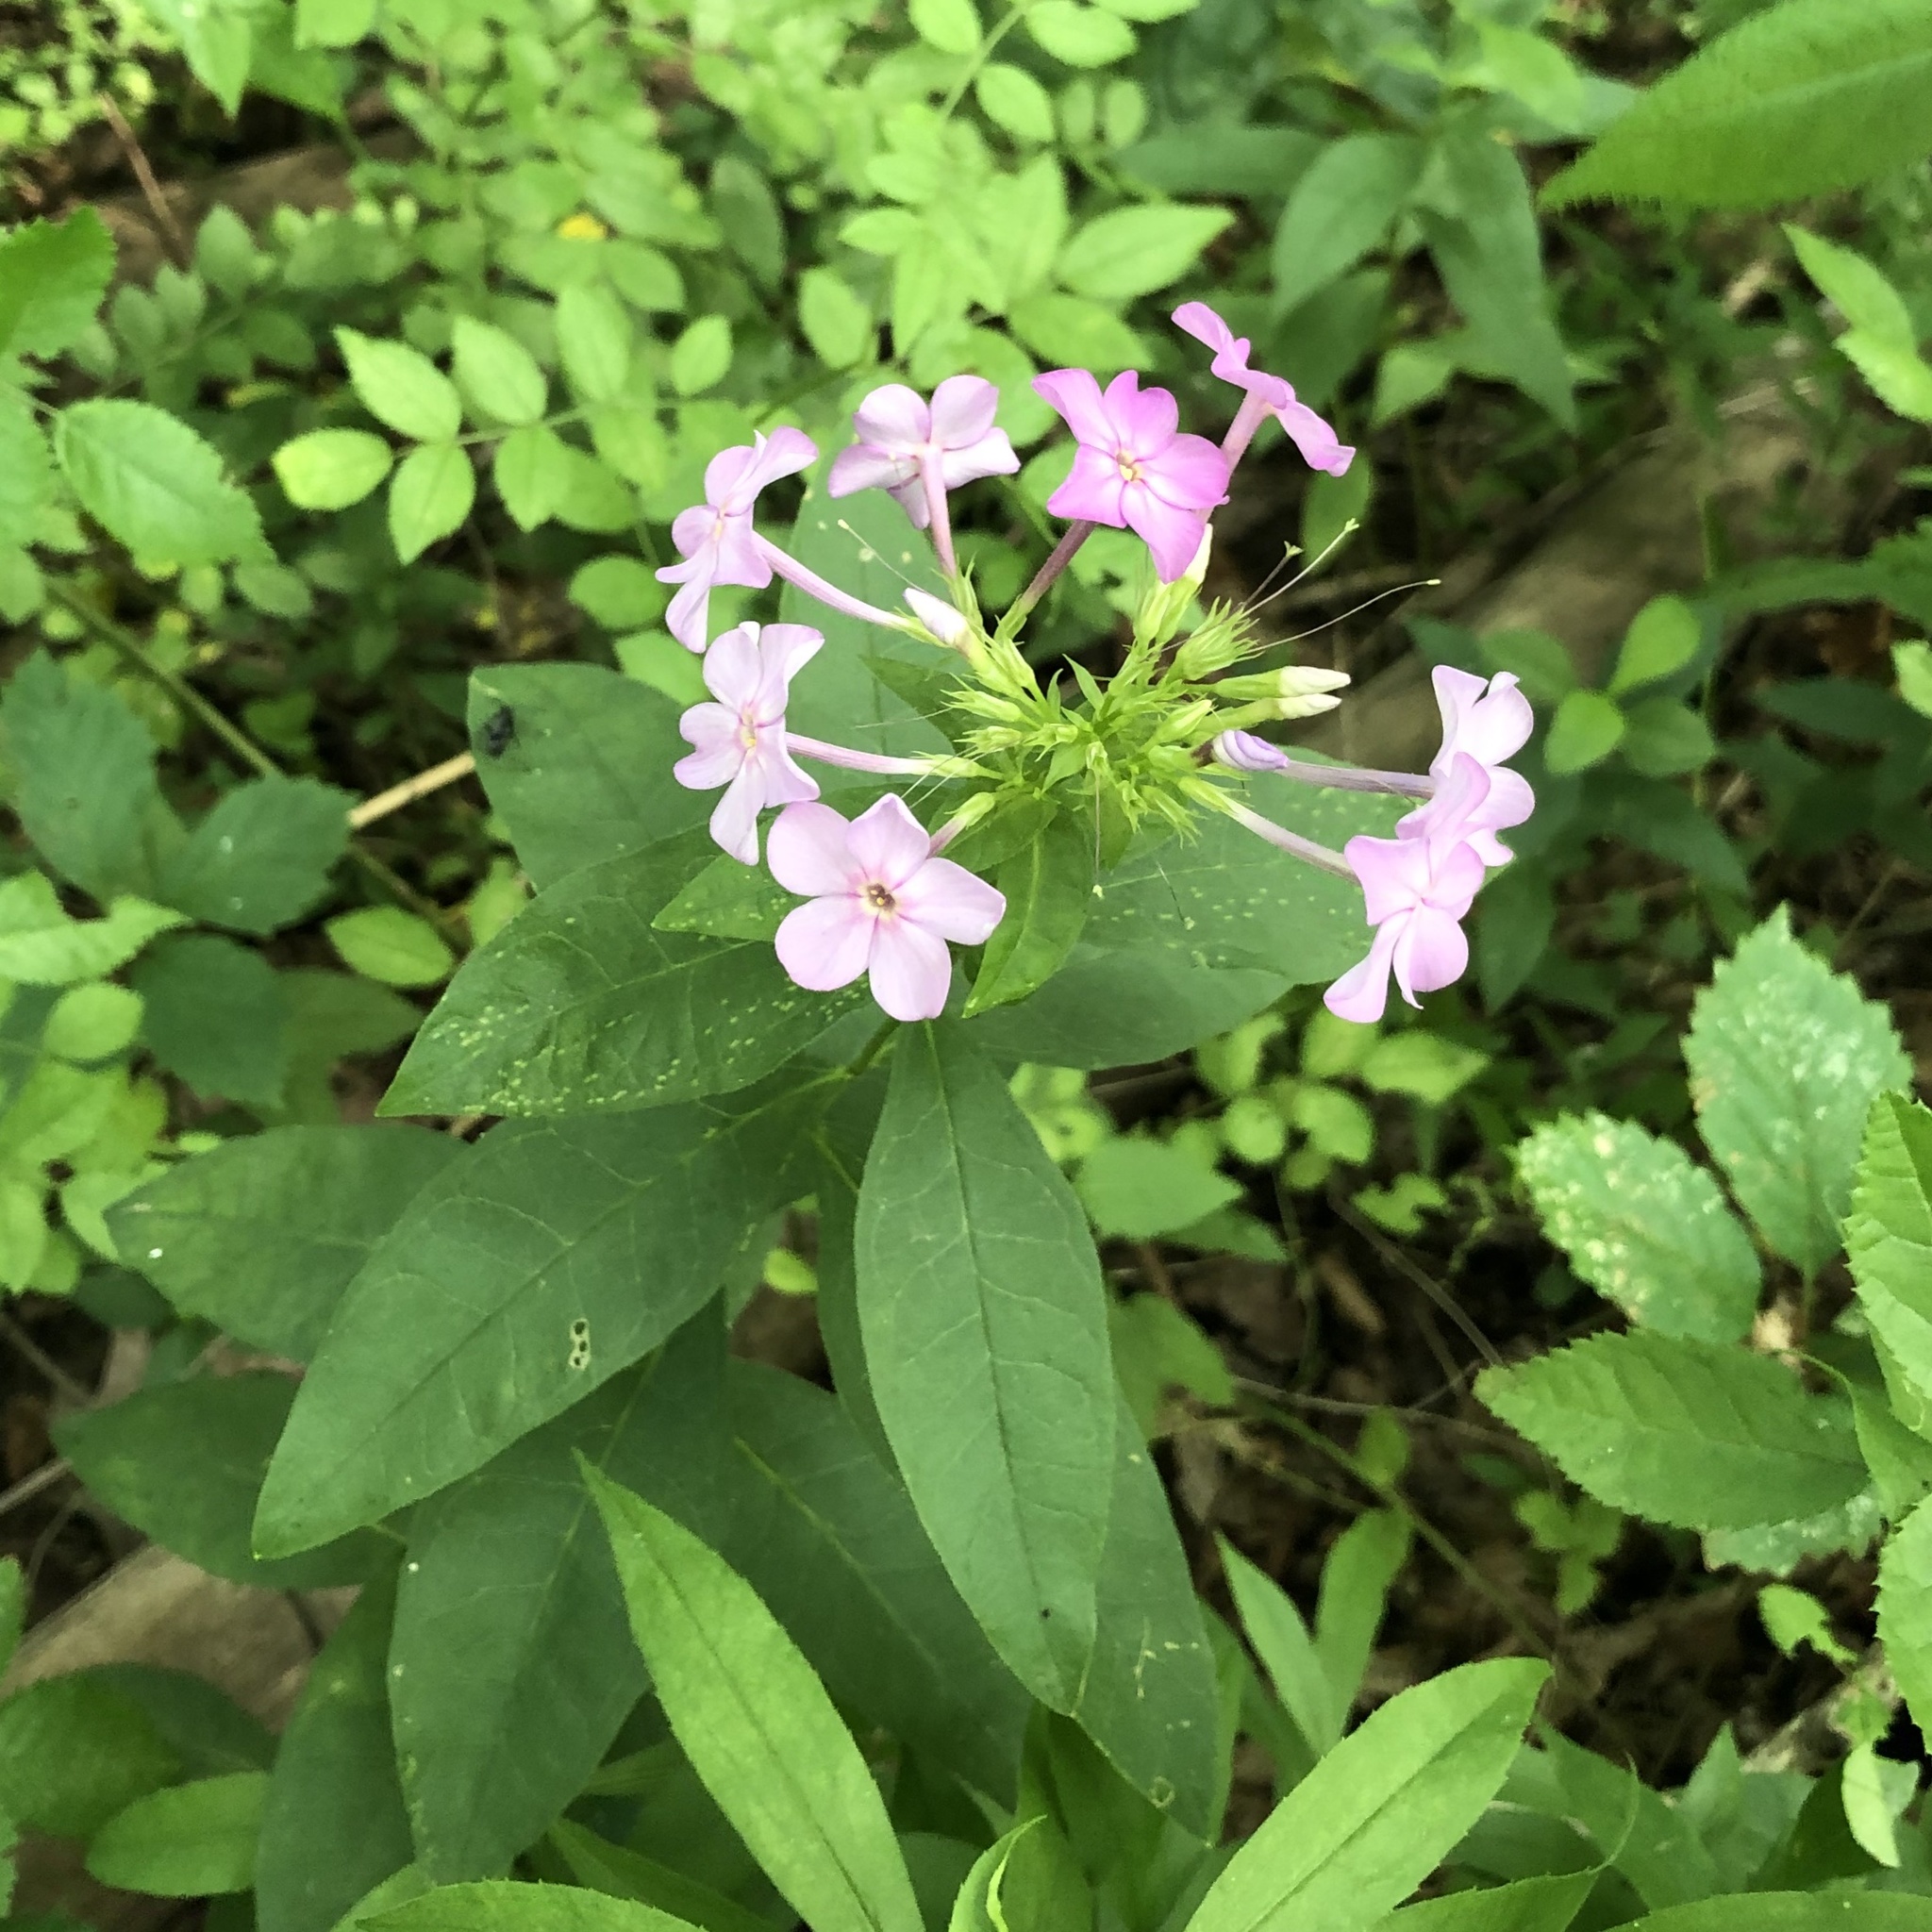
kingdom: Plantae
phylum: Tracheophyta
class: Magnoliopsida
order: Ericales
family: Polemoniaceae
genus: Phlox
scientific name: Phlox paniculata
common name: Fall phlox
